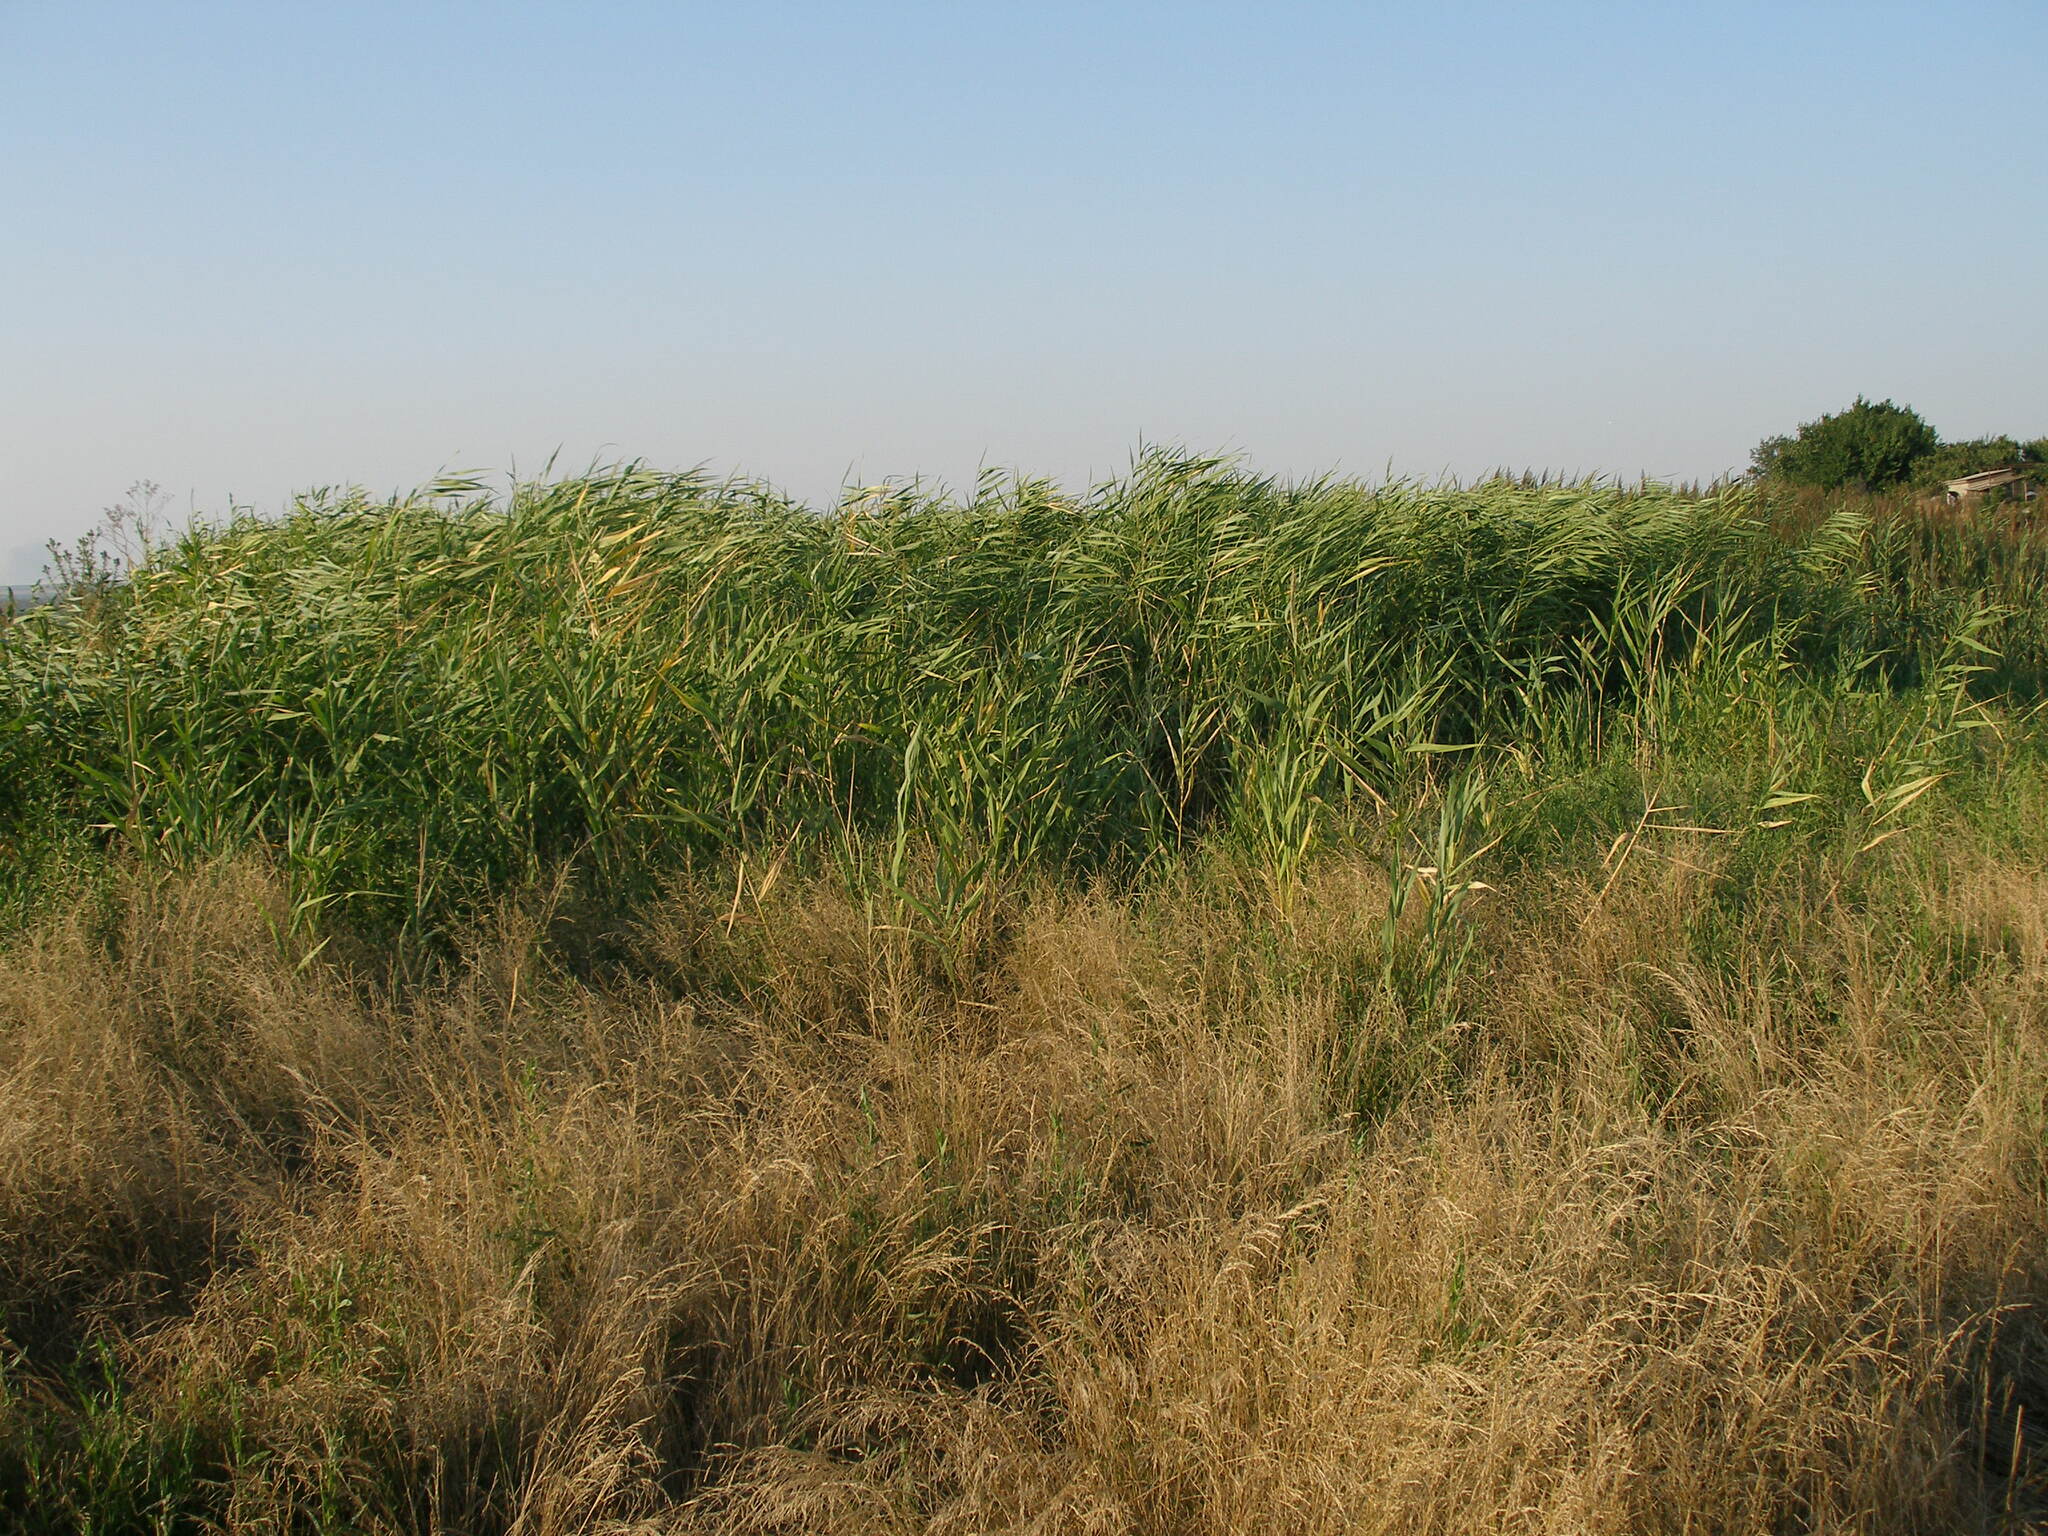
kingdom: Plantae
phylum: Tracheophyta
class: Liliopsida
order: Poales
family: Poaceae
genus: Phragmites
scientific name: Phragmites australis
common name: Common reed
